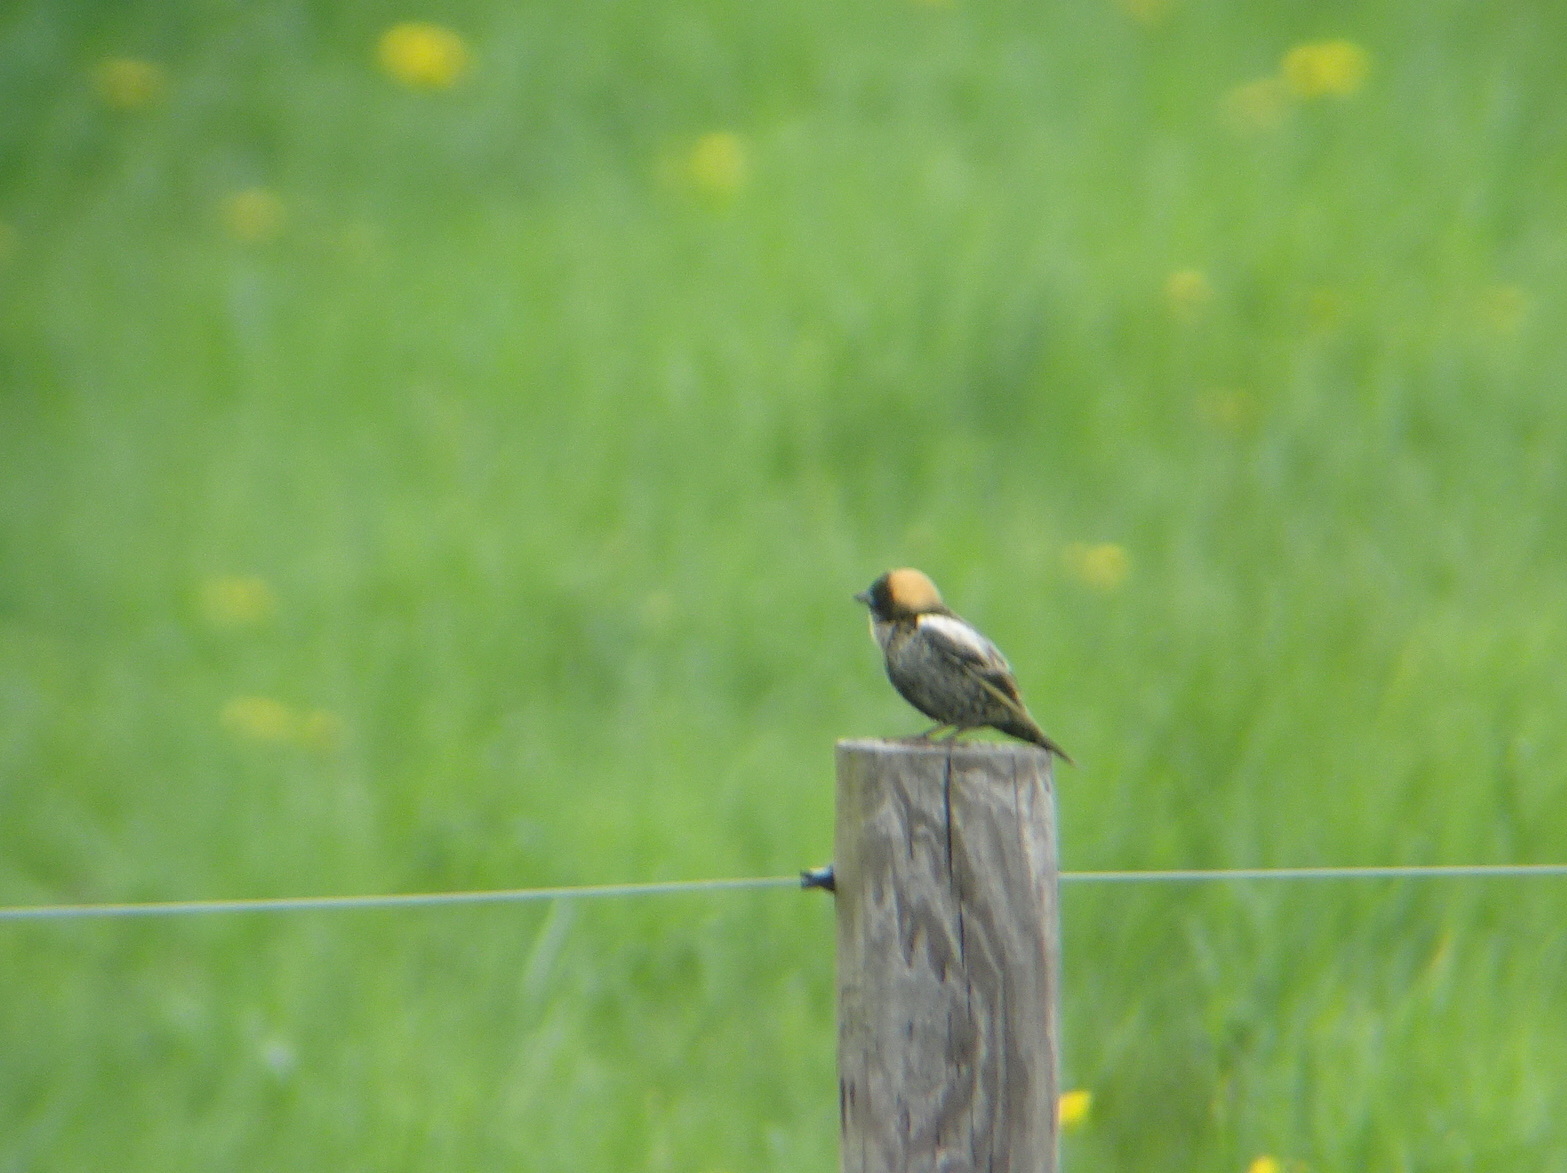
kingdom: Animalia
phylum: Chordata
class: Aves
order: Passeriformes
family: Icteridae
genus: Dolichonyx
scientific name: Dolichonyx oryzivorus
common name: Bobolink
